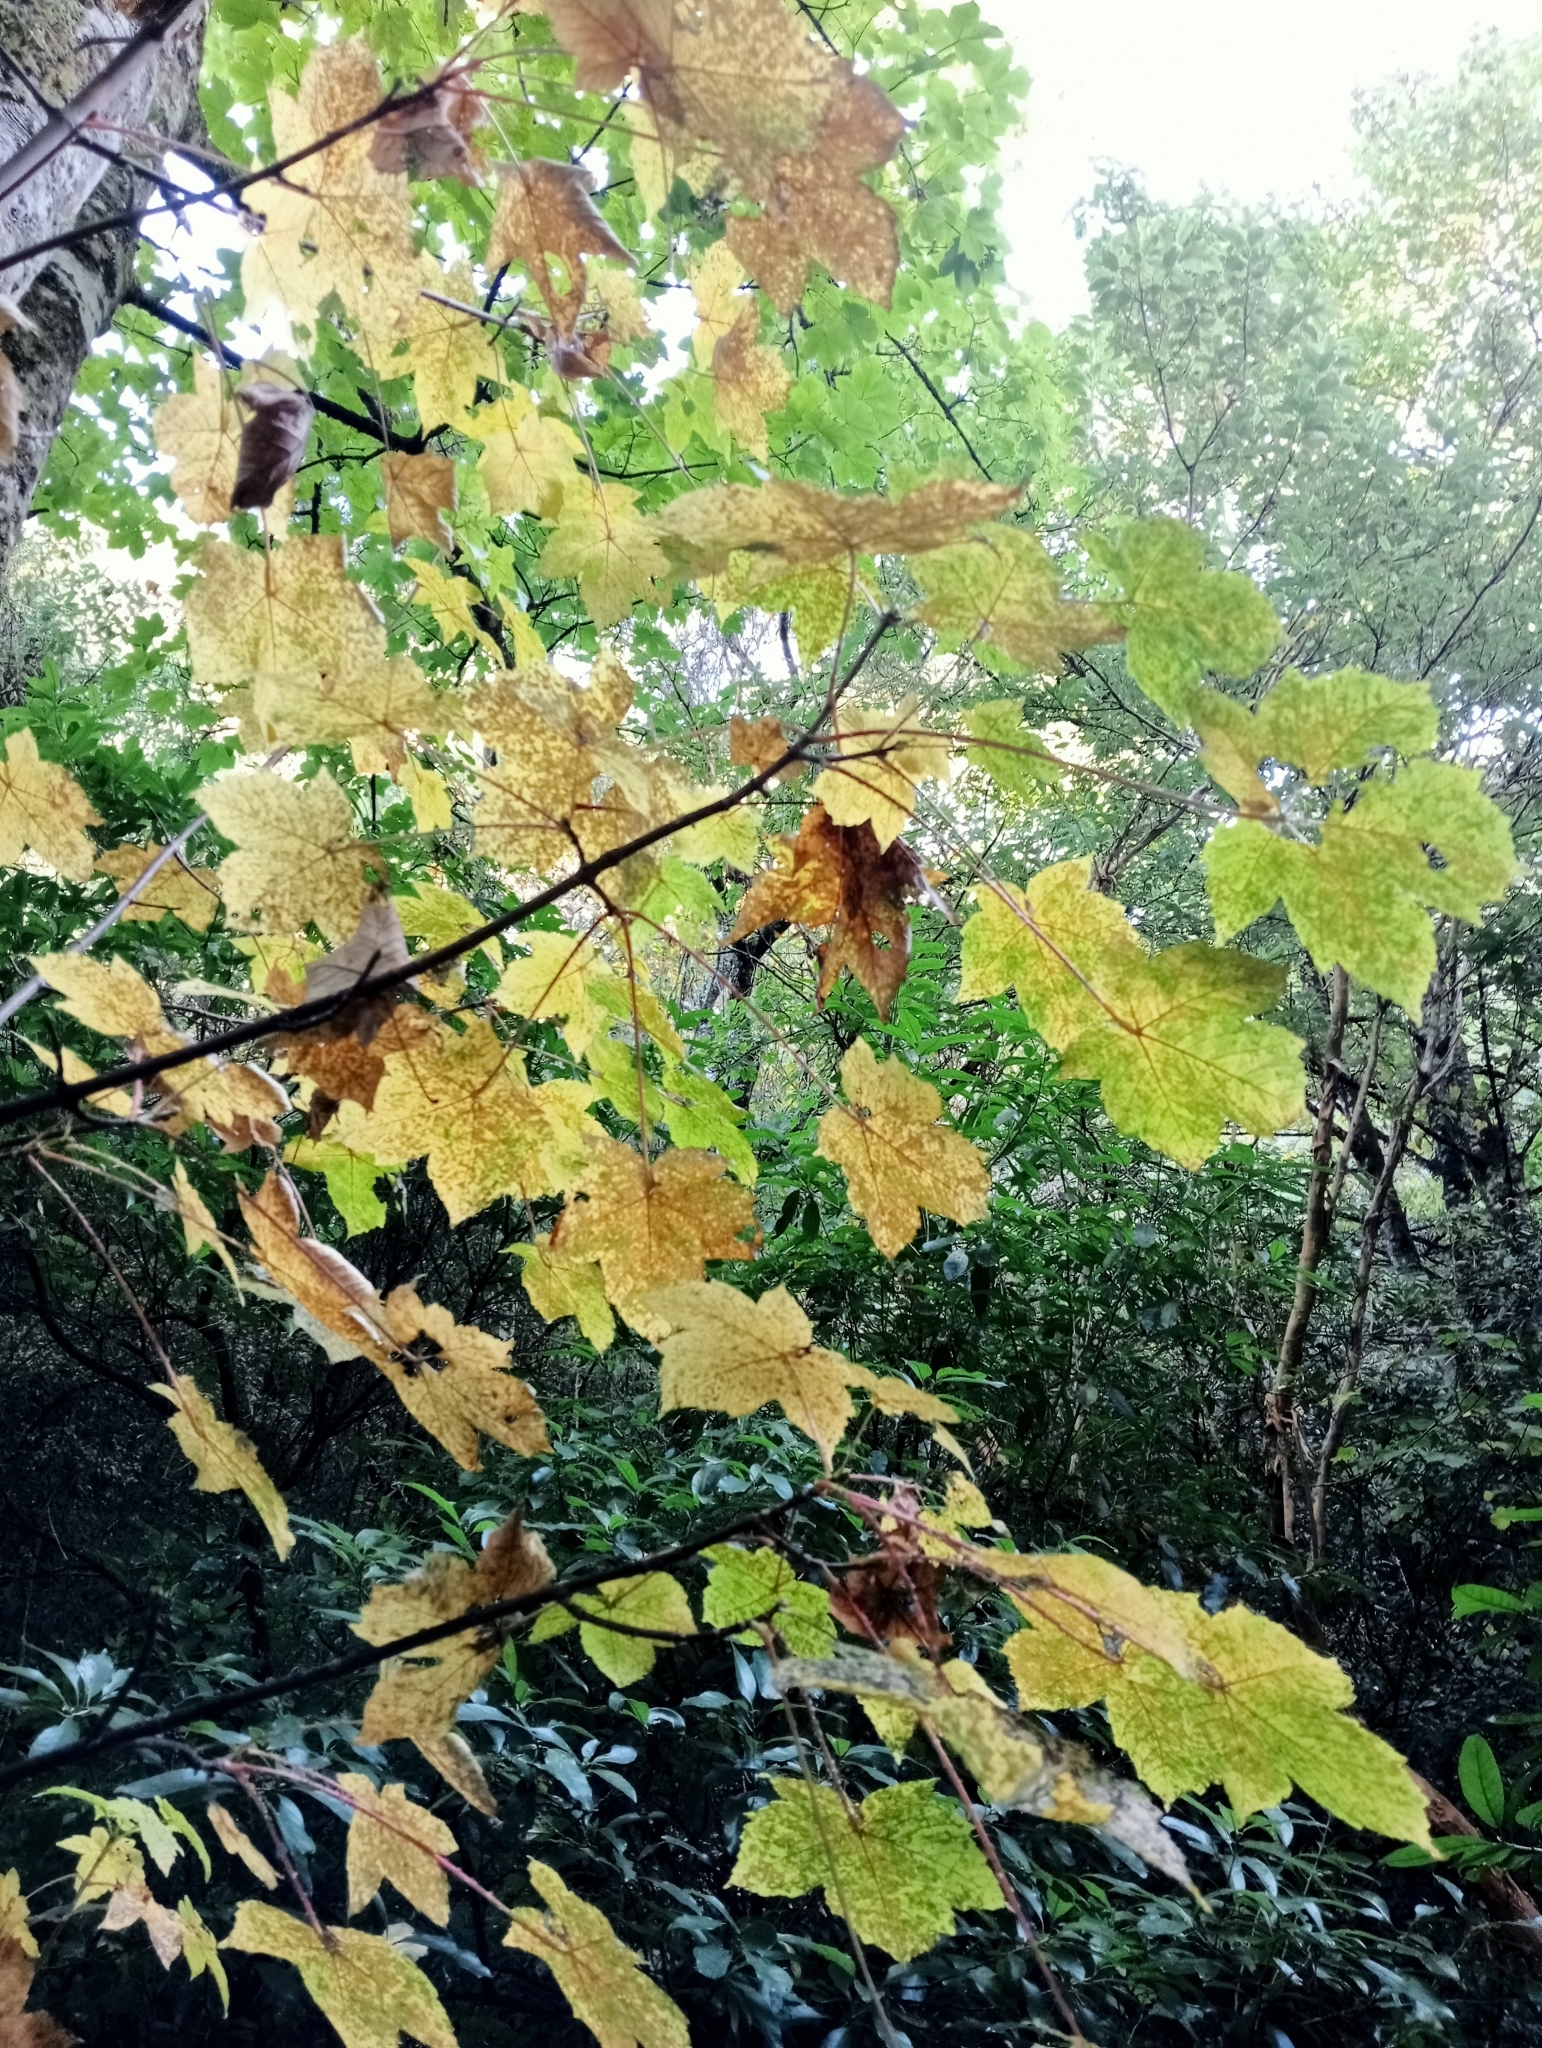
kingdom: Plantae
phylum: Tracheophyta
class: Magnoliopsida
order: Sapindales
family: Sapindaceae
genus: Acer
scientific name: Acer pseudoplatanus
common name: Sycamore
